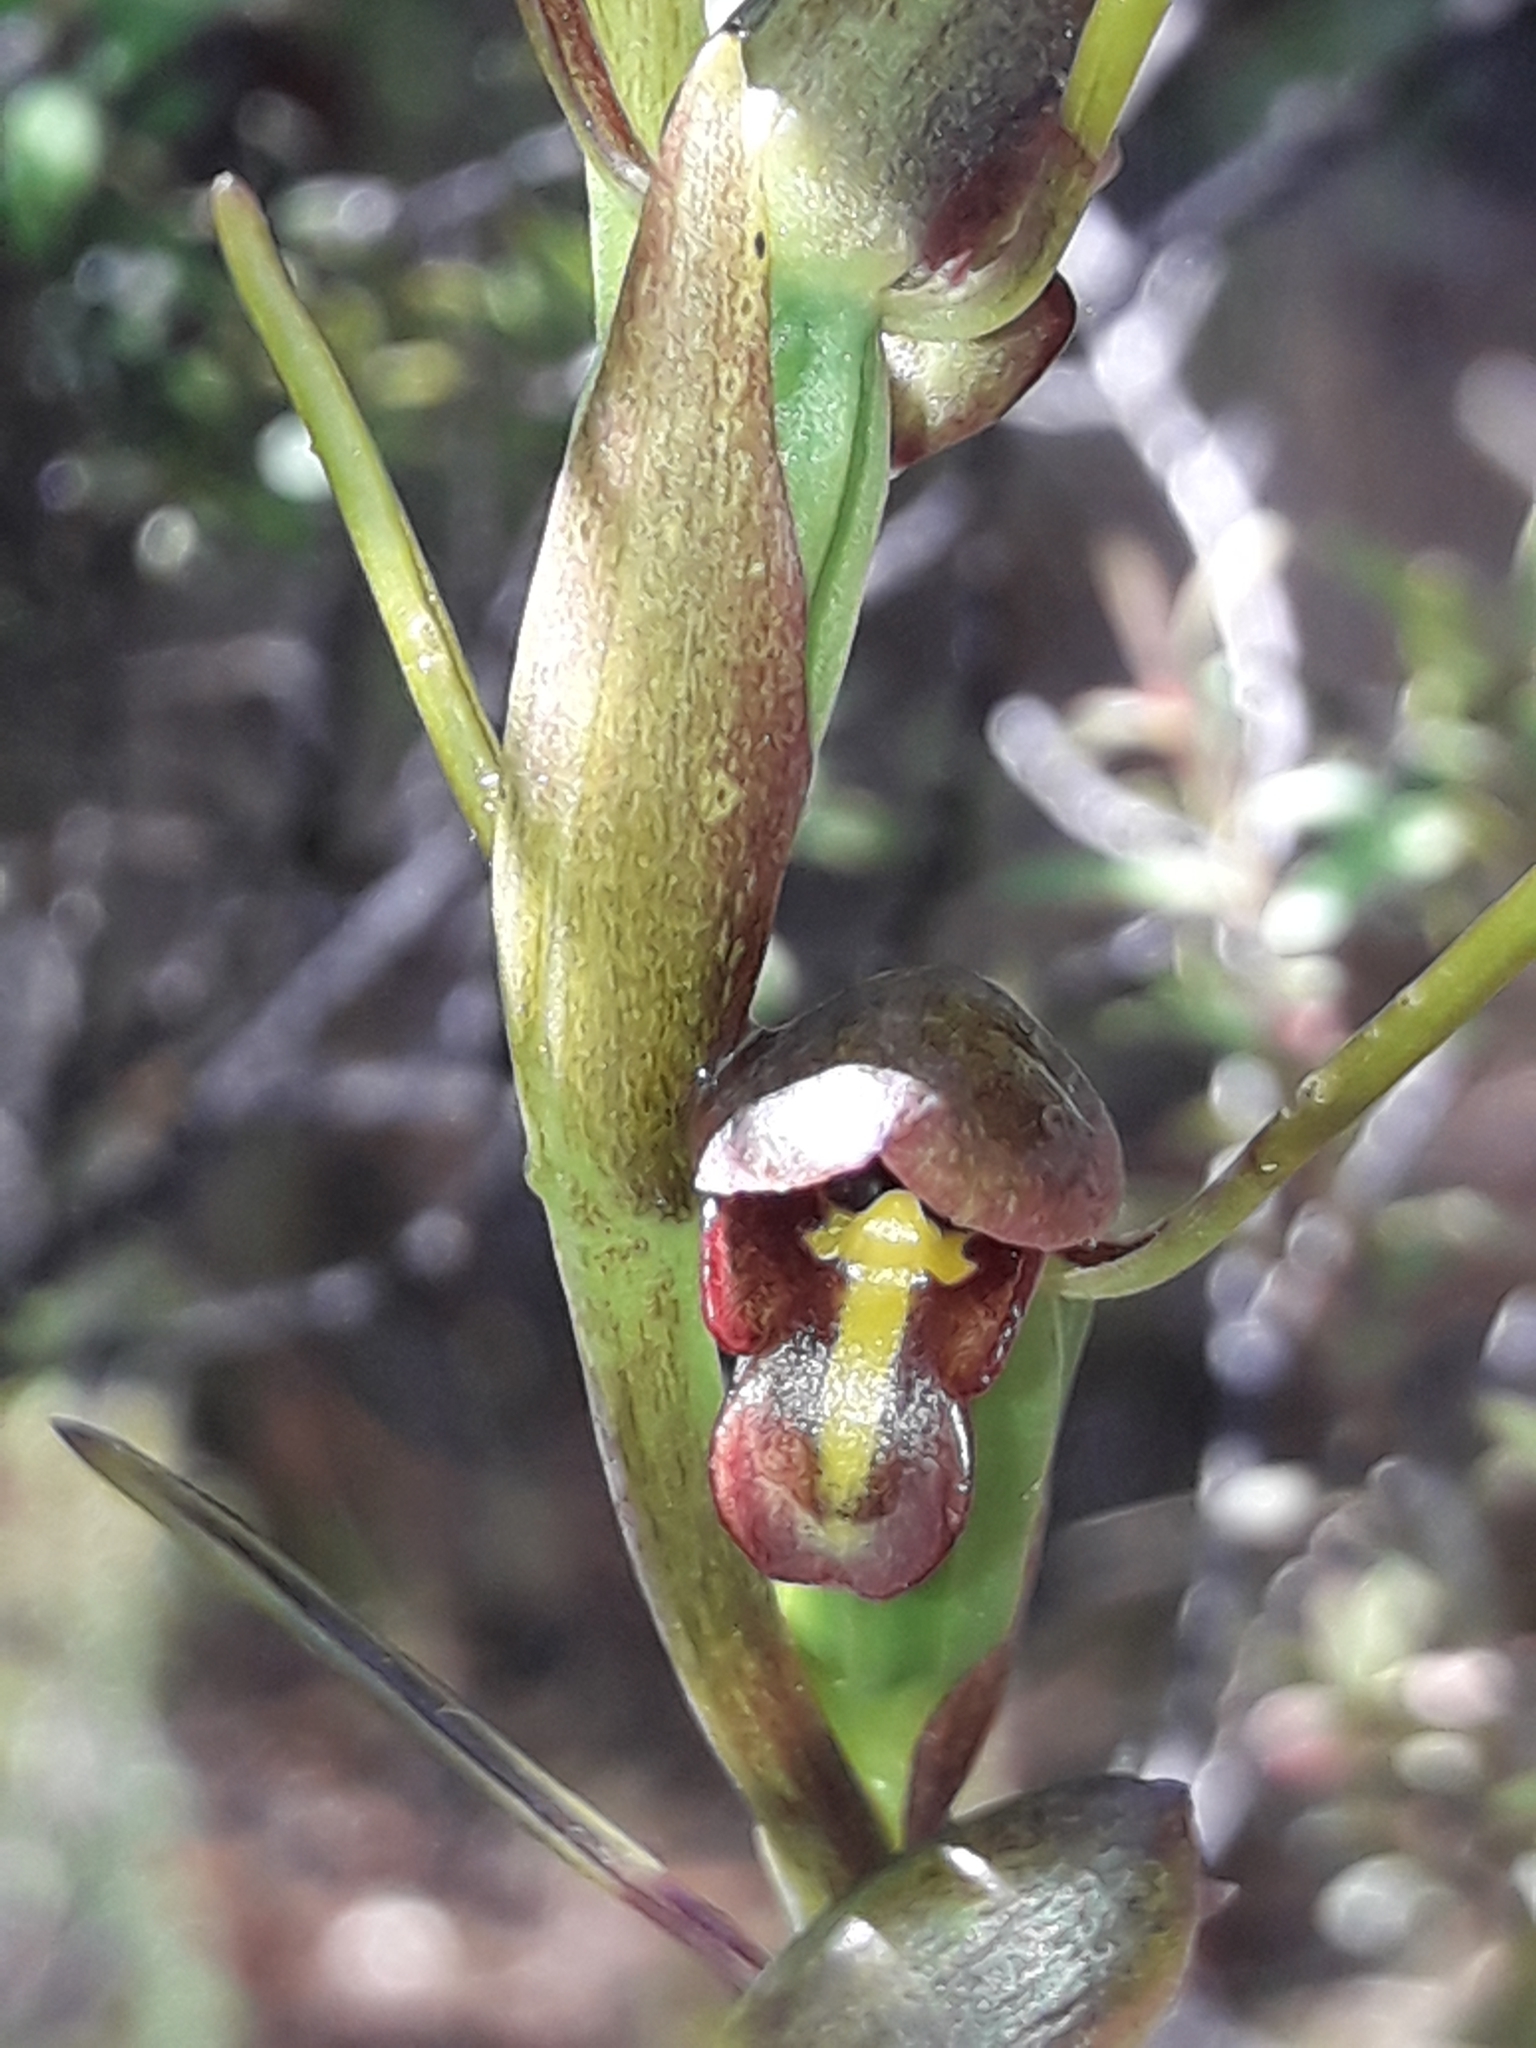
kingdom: Plantae
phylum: Tracheophyta
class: Liliopsida
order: Asparagales
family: Orchidaceae
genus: Orthoceras
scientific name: Orthoceras novae-zeelandiae
